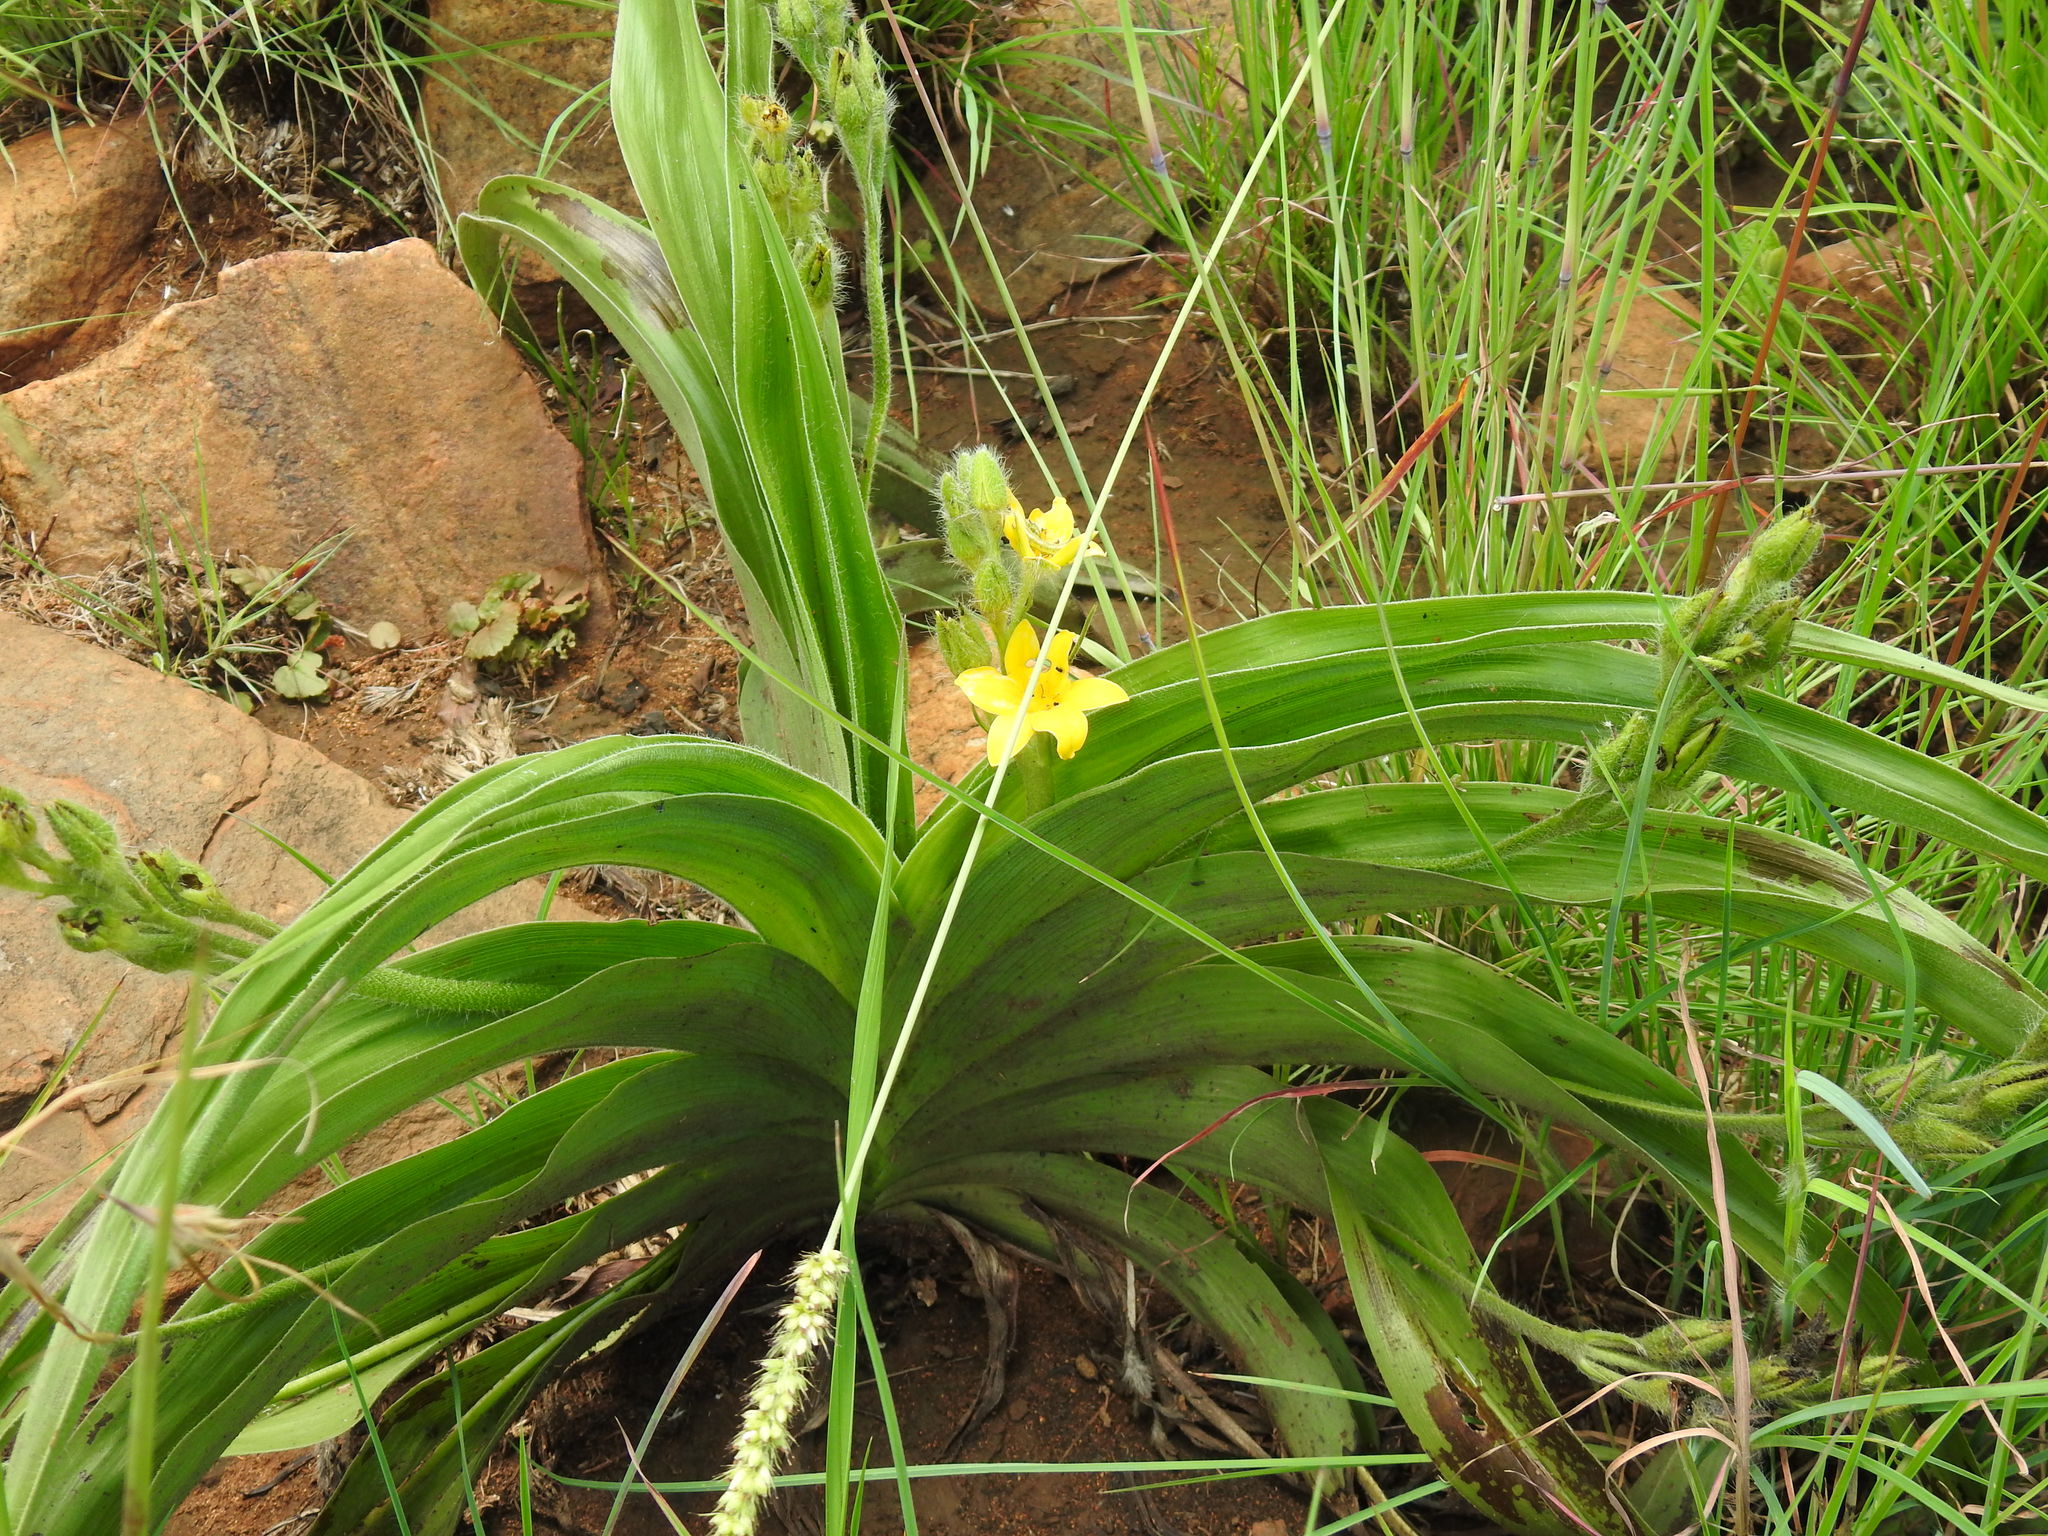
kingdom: Plantae
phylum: Tracheophyta
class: Liliopsida
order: Asparagales
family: Hypoxidaceae
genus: Hypoxis
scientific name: Hypoxis hemerocallidea
